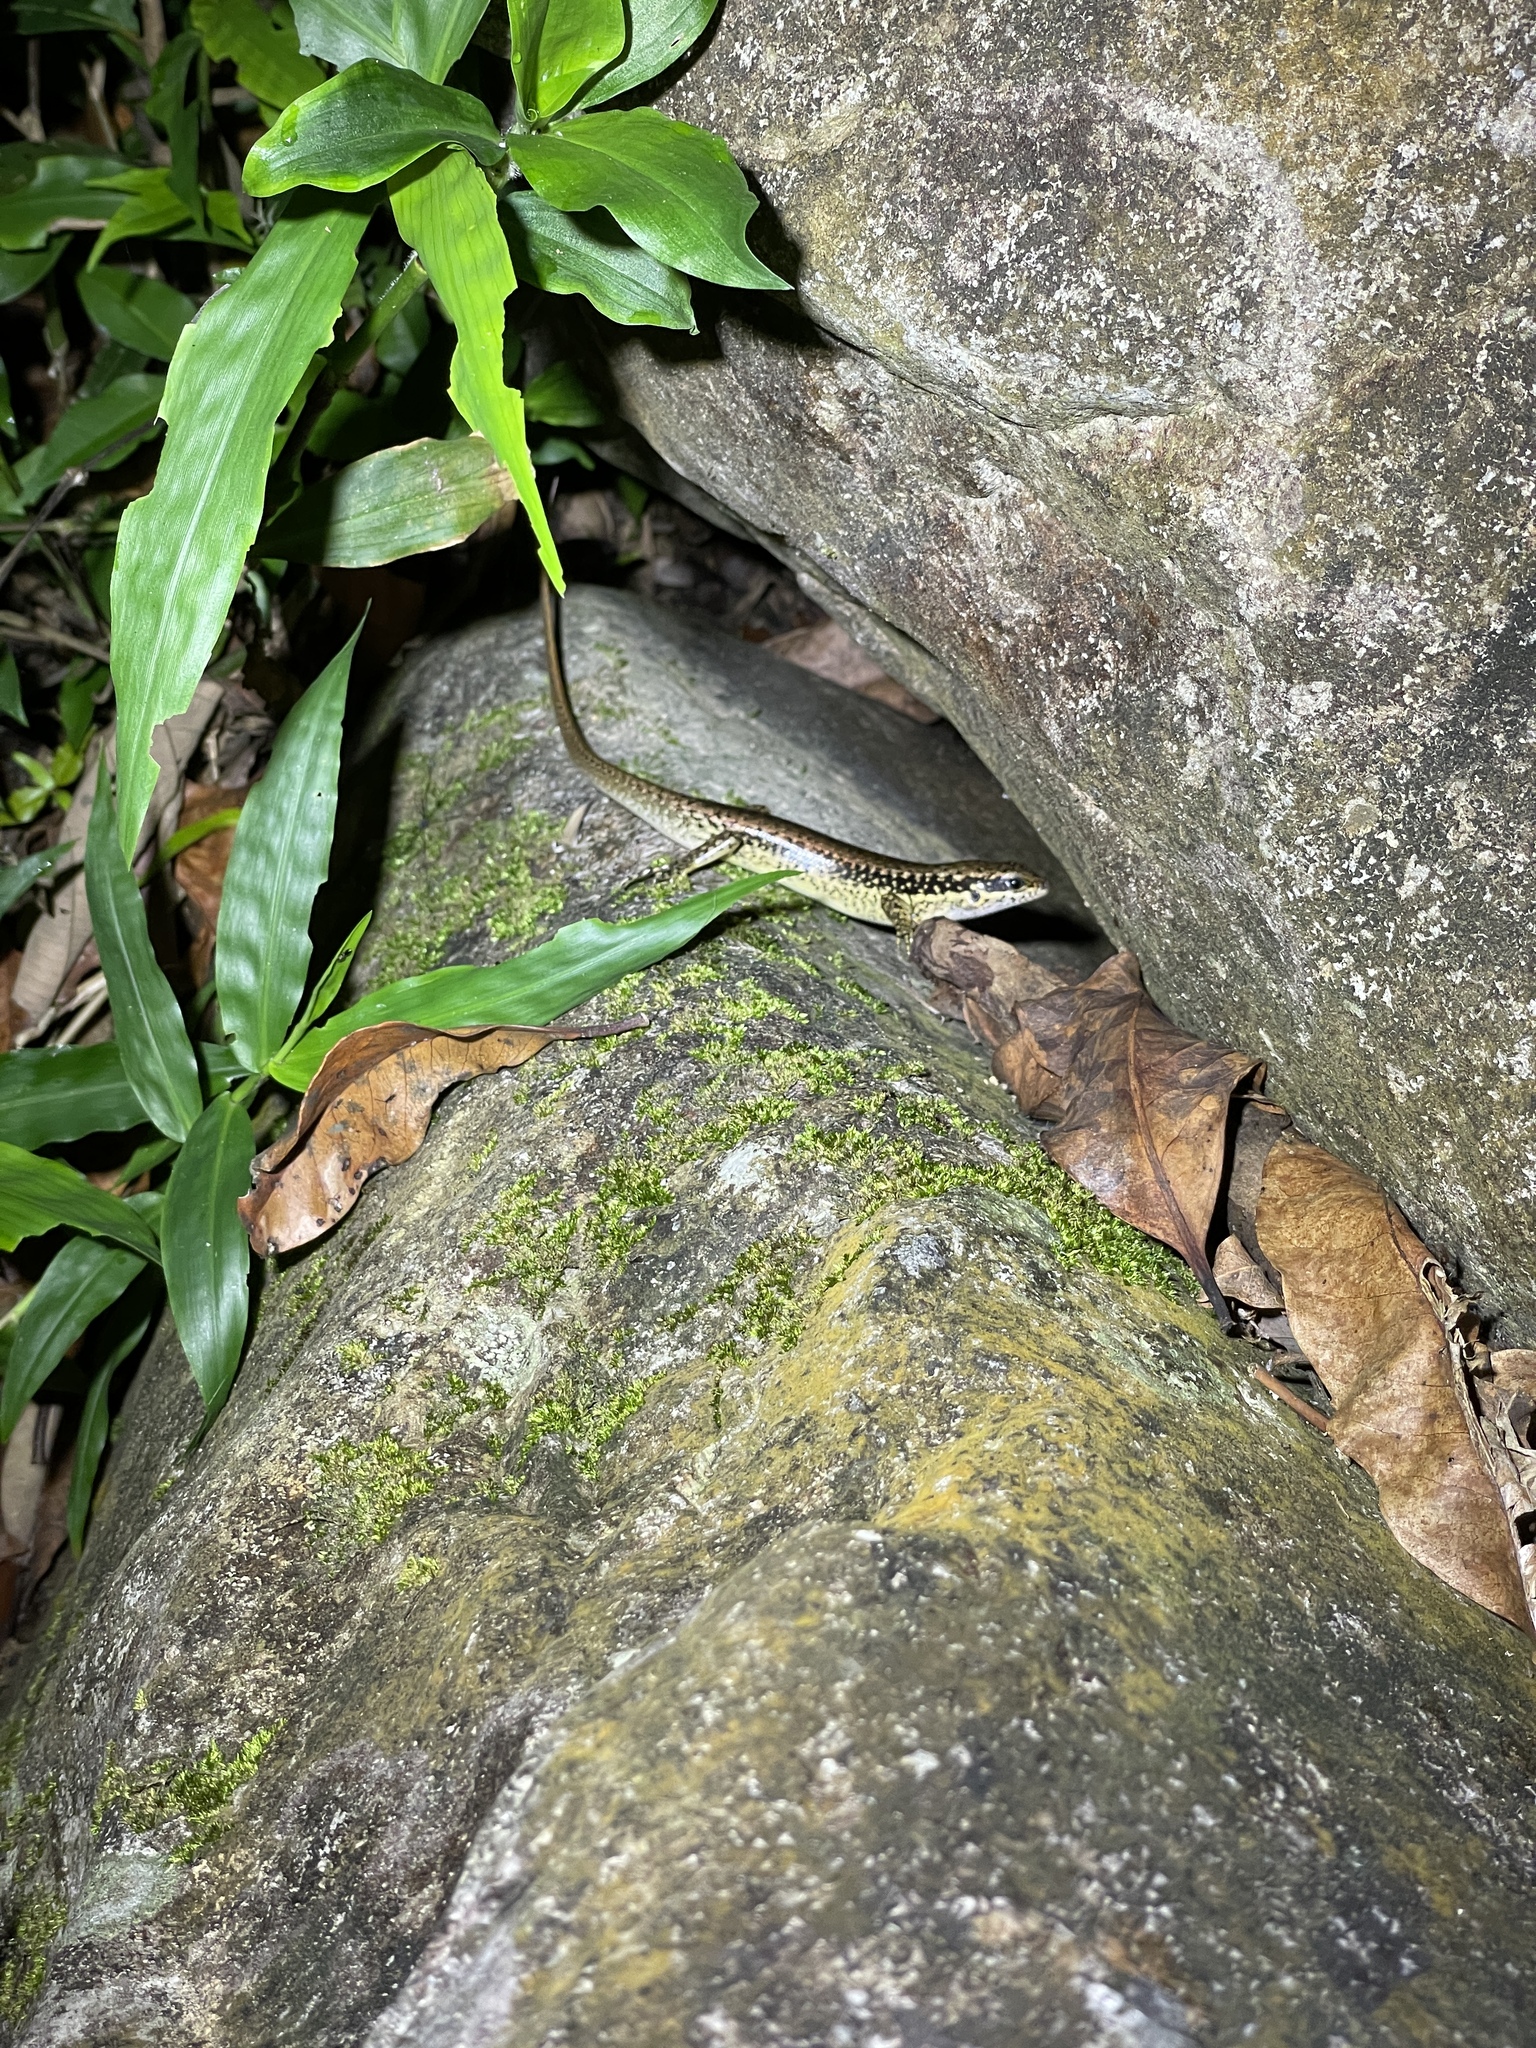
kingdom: Animalia
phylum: Chordata
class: Squamata
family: Scincidae
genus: Sphenomorphus
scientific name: Sphenomorphus incognitus
